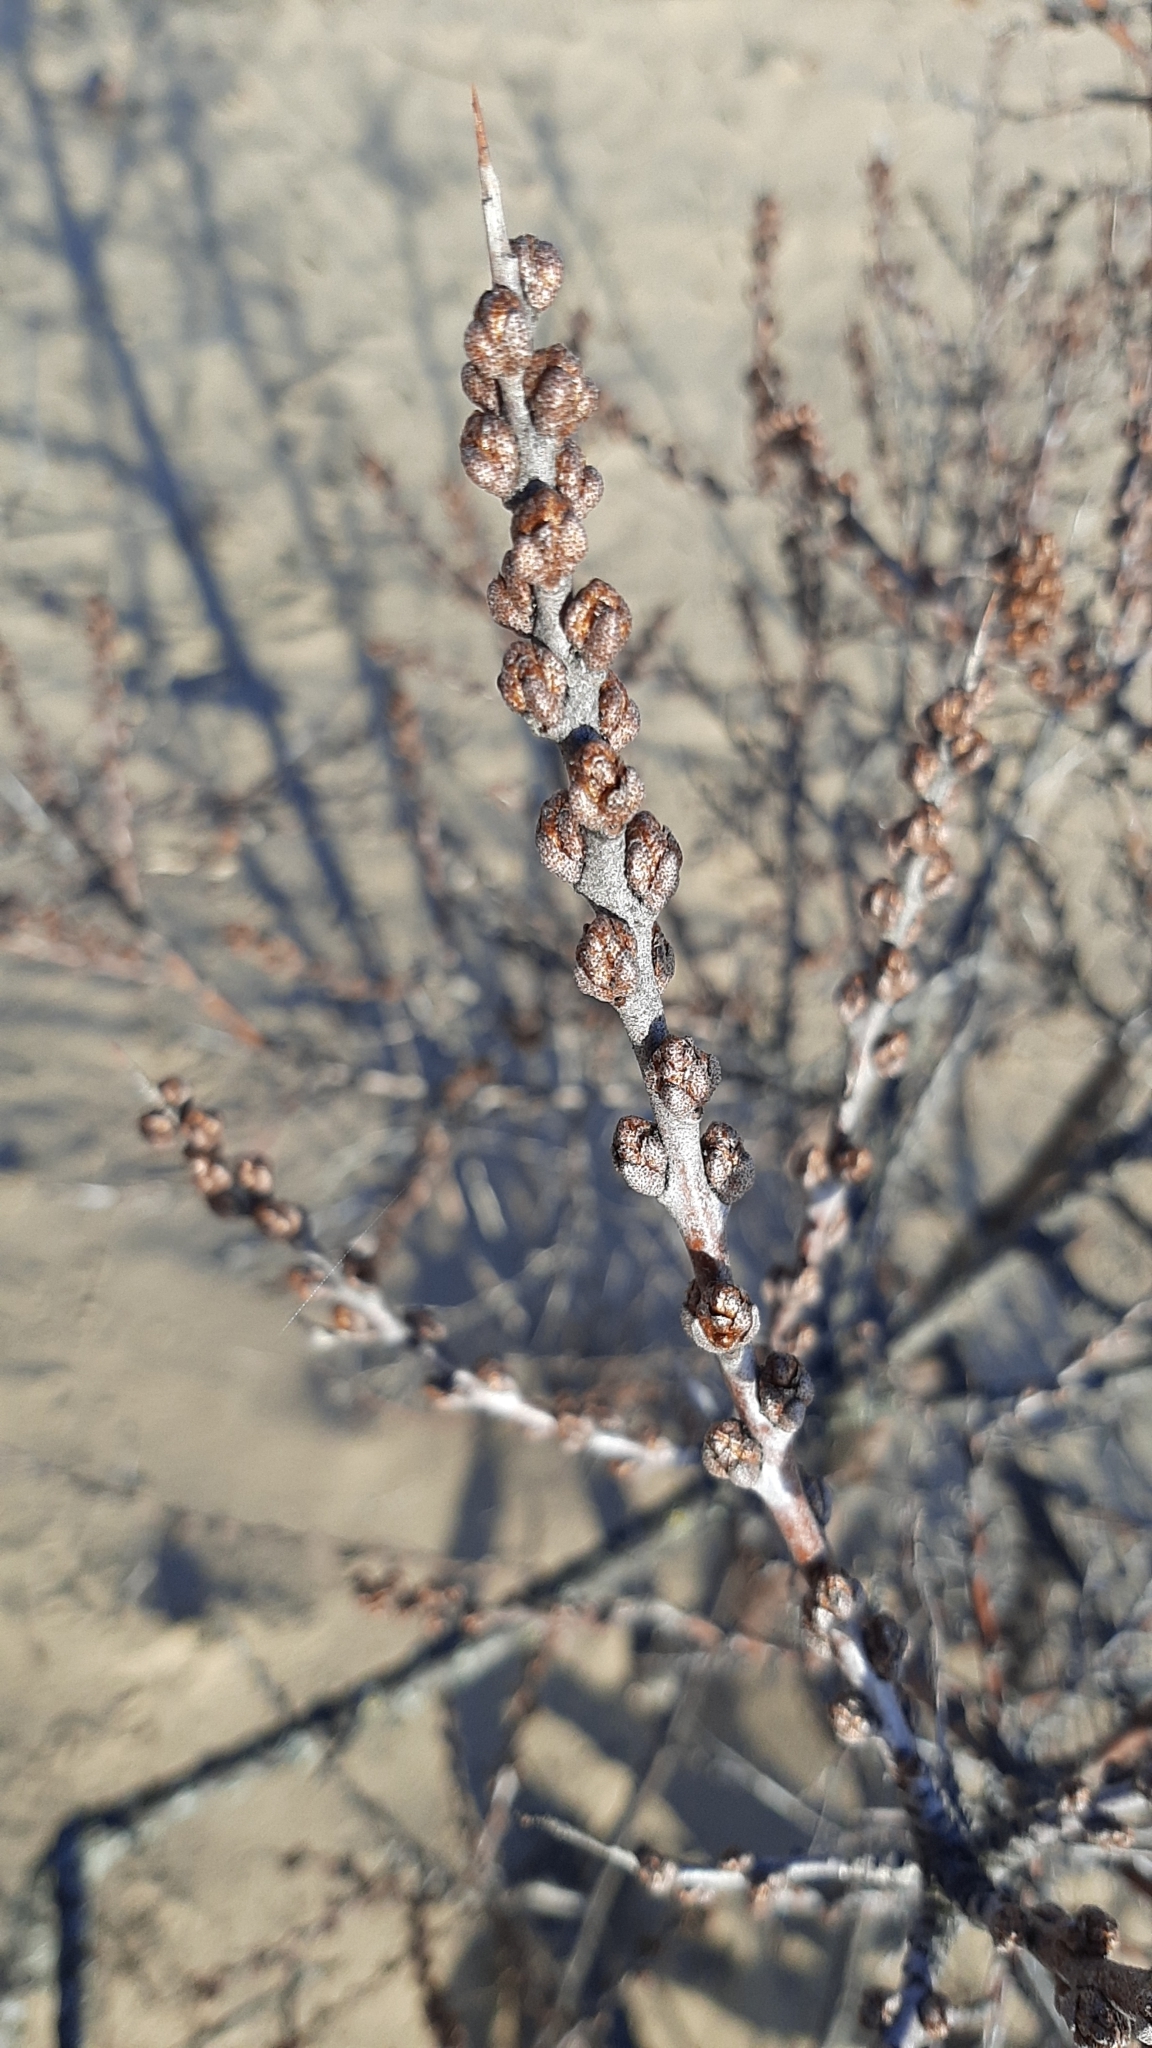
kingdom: Plantae
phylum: Tracheophyta
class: Magnoliopsida
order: Rosales
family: Elaeagnaceae
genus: Hippophae
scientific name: Hippophae rhamnoides
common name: Sea-buckthorn
